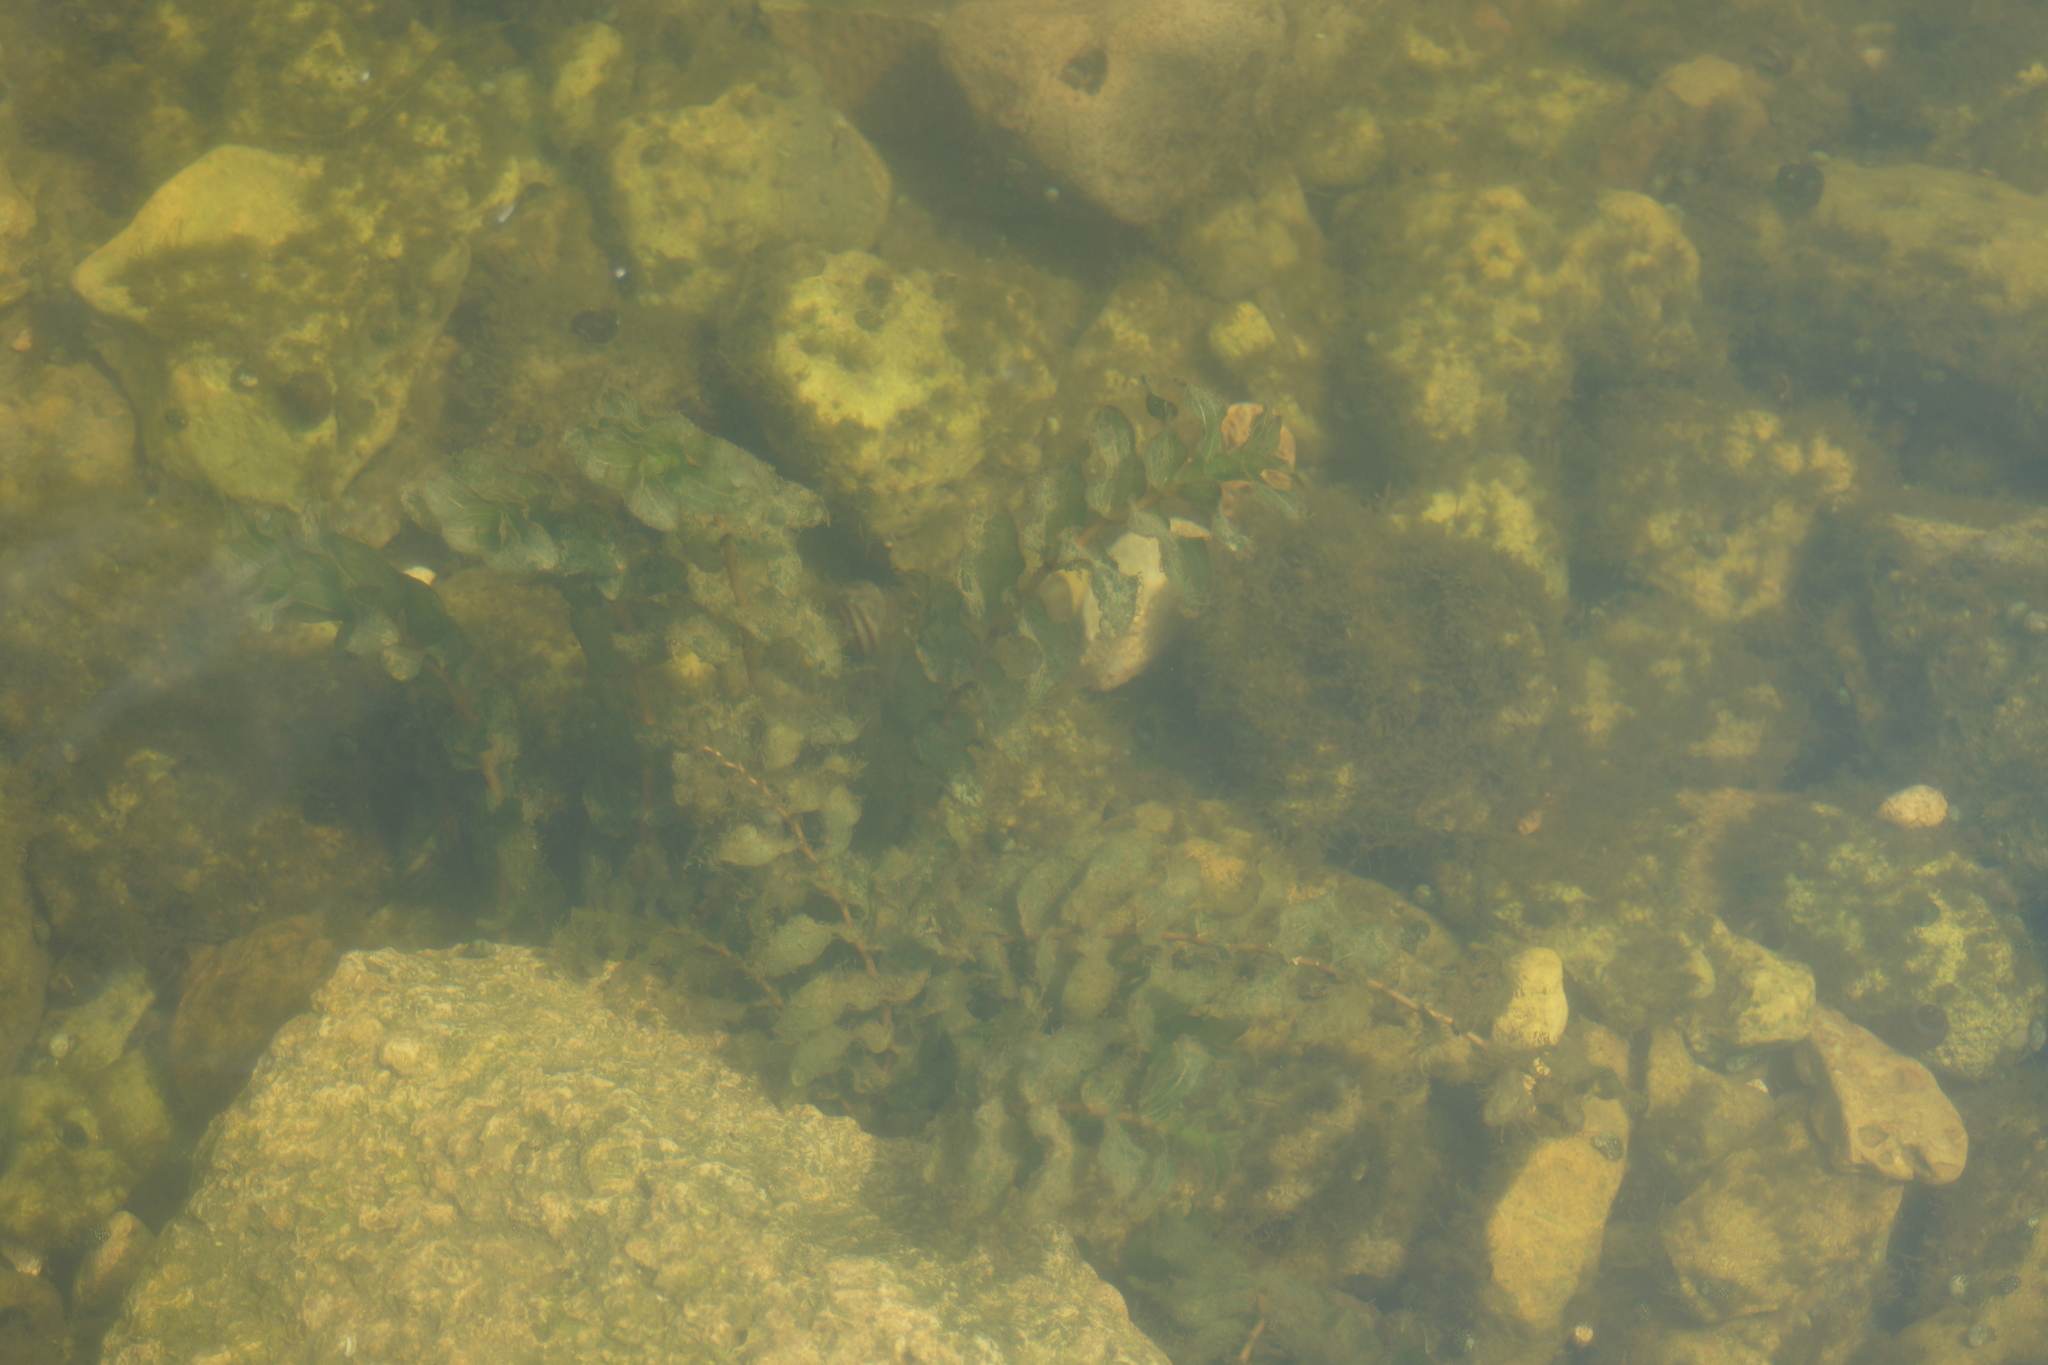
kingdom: Plantae
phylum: Tracheophyta
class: Liliopsida
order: Alismatales
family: Potamogetonaceae
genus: Potamogeton
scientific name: Potamogeton perfoliatus
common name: Perfoliate pondweed
